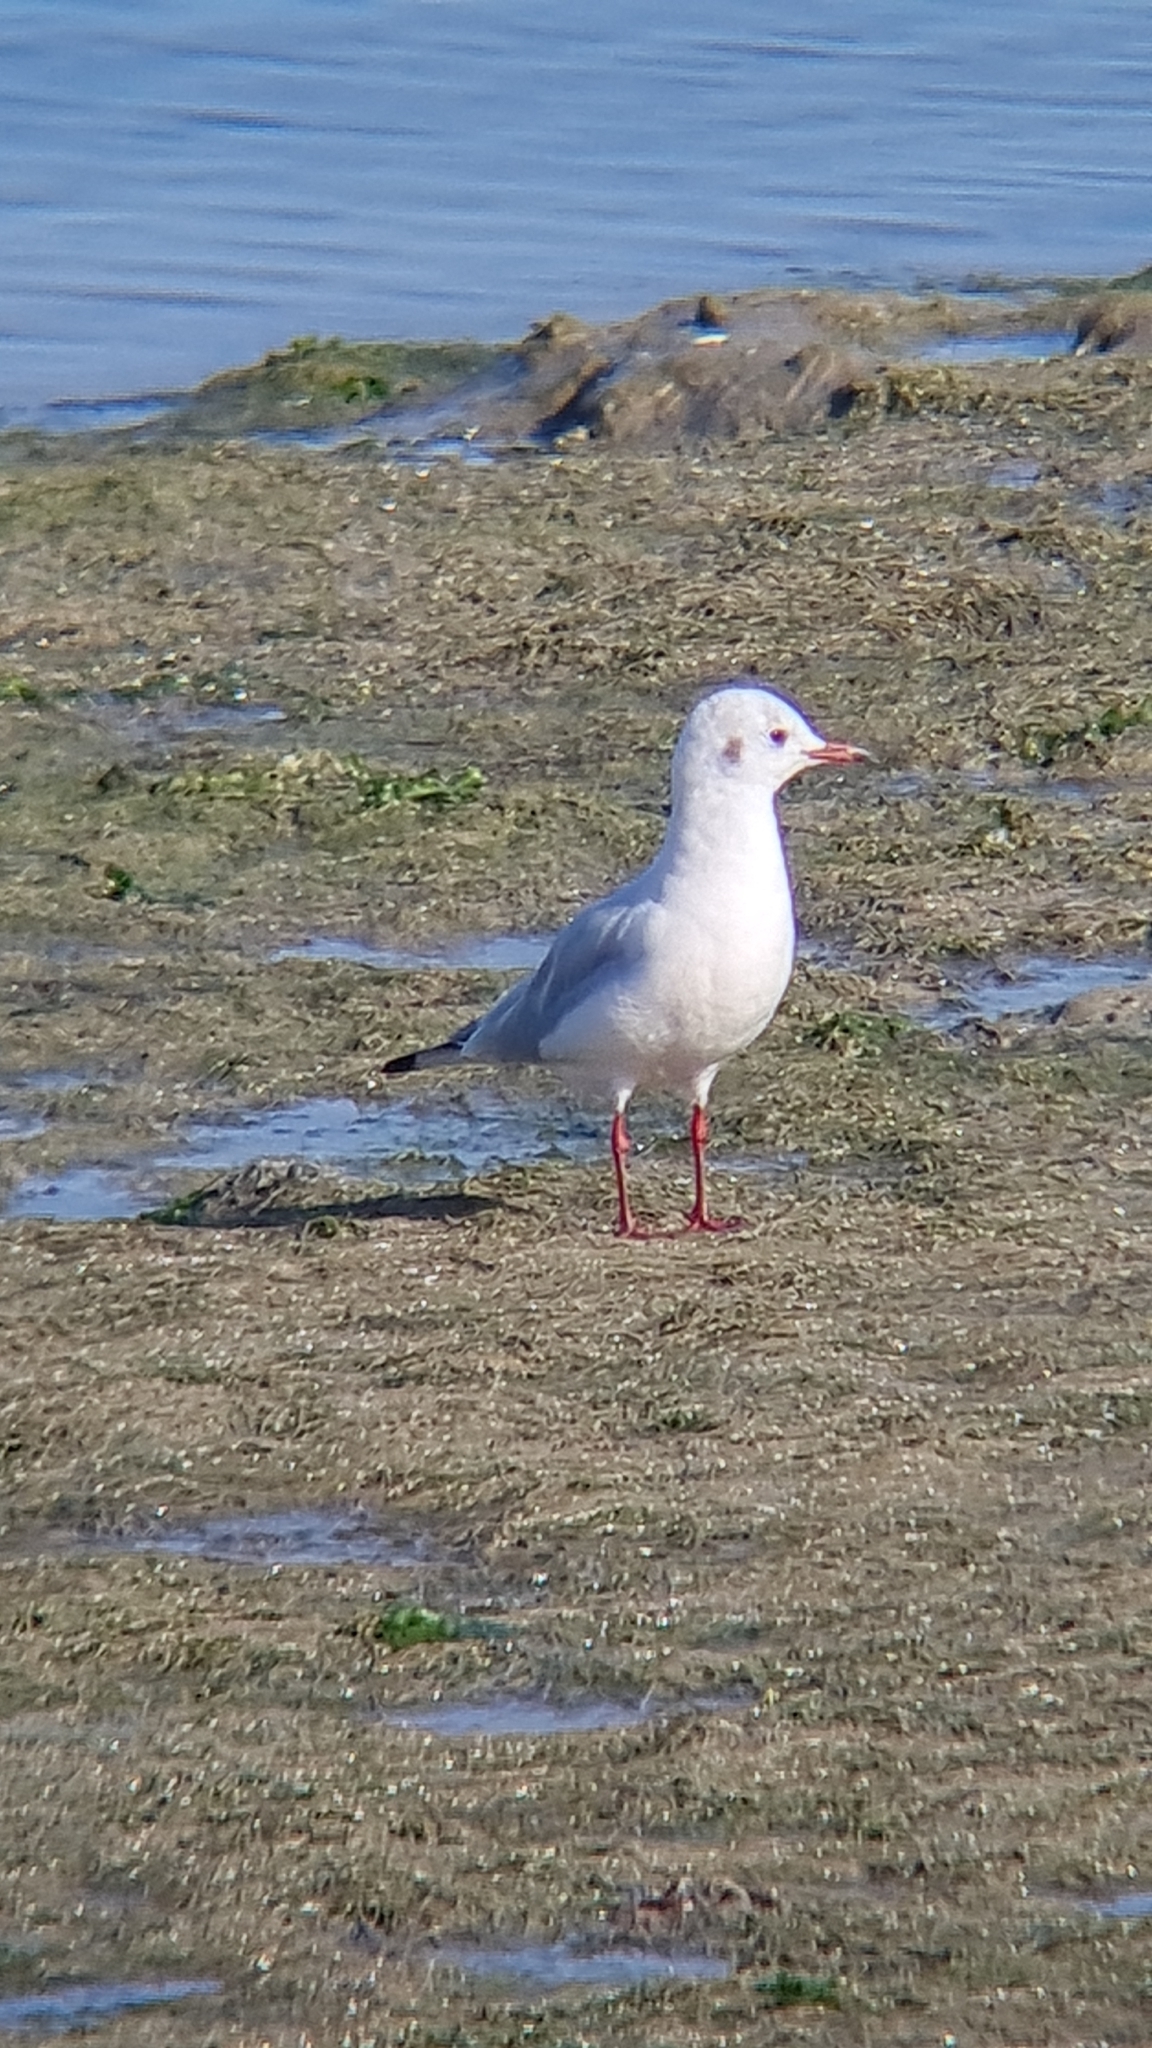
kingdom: Animalia
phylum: Chordata
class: Aves
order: Charadriiformes
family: Laridae
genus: Chroicocephalus
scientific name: Chroicocephalus ridibundus
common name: Black-headed gull
